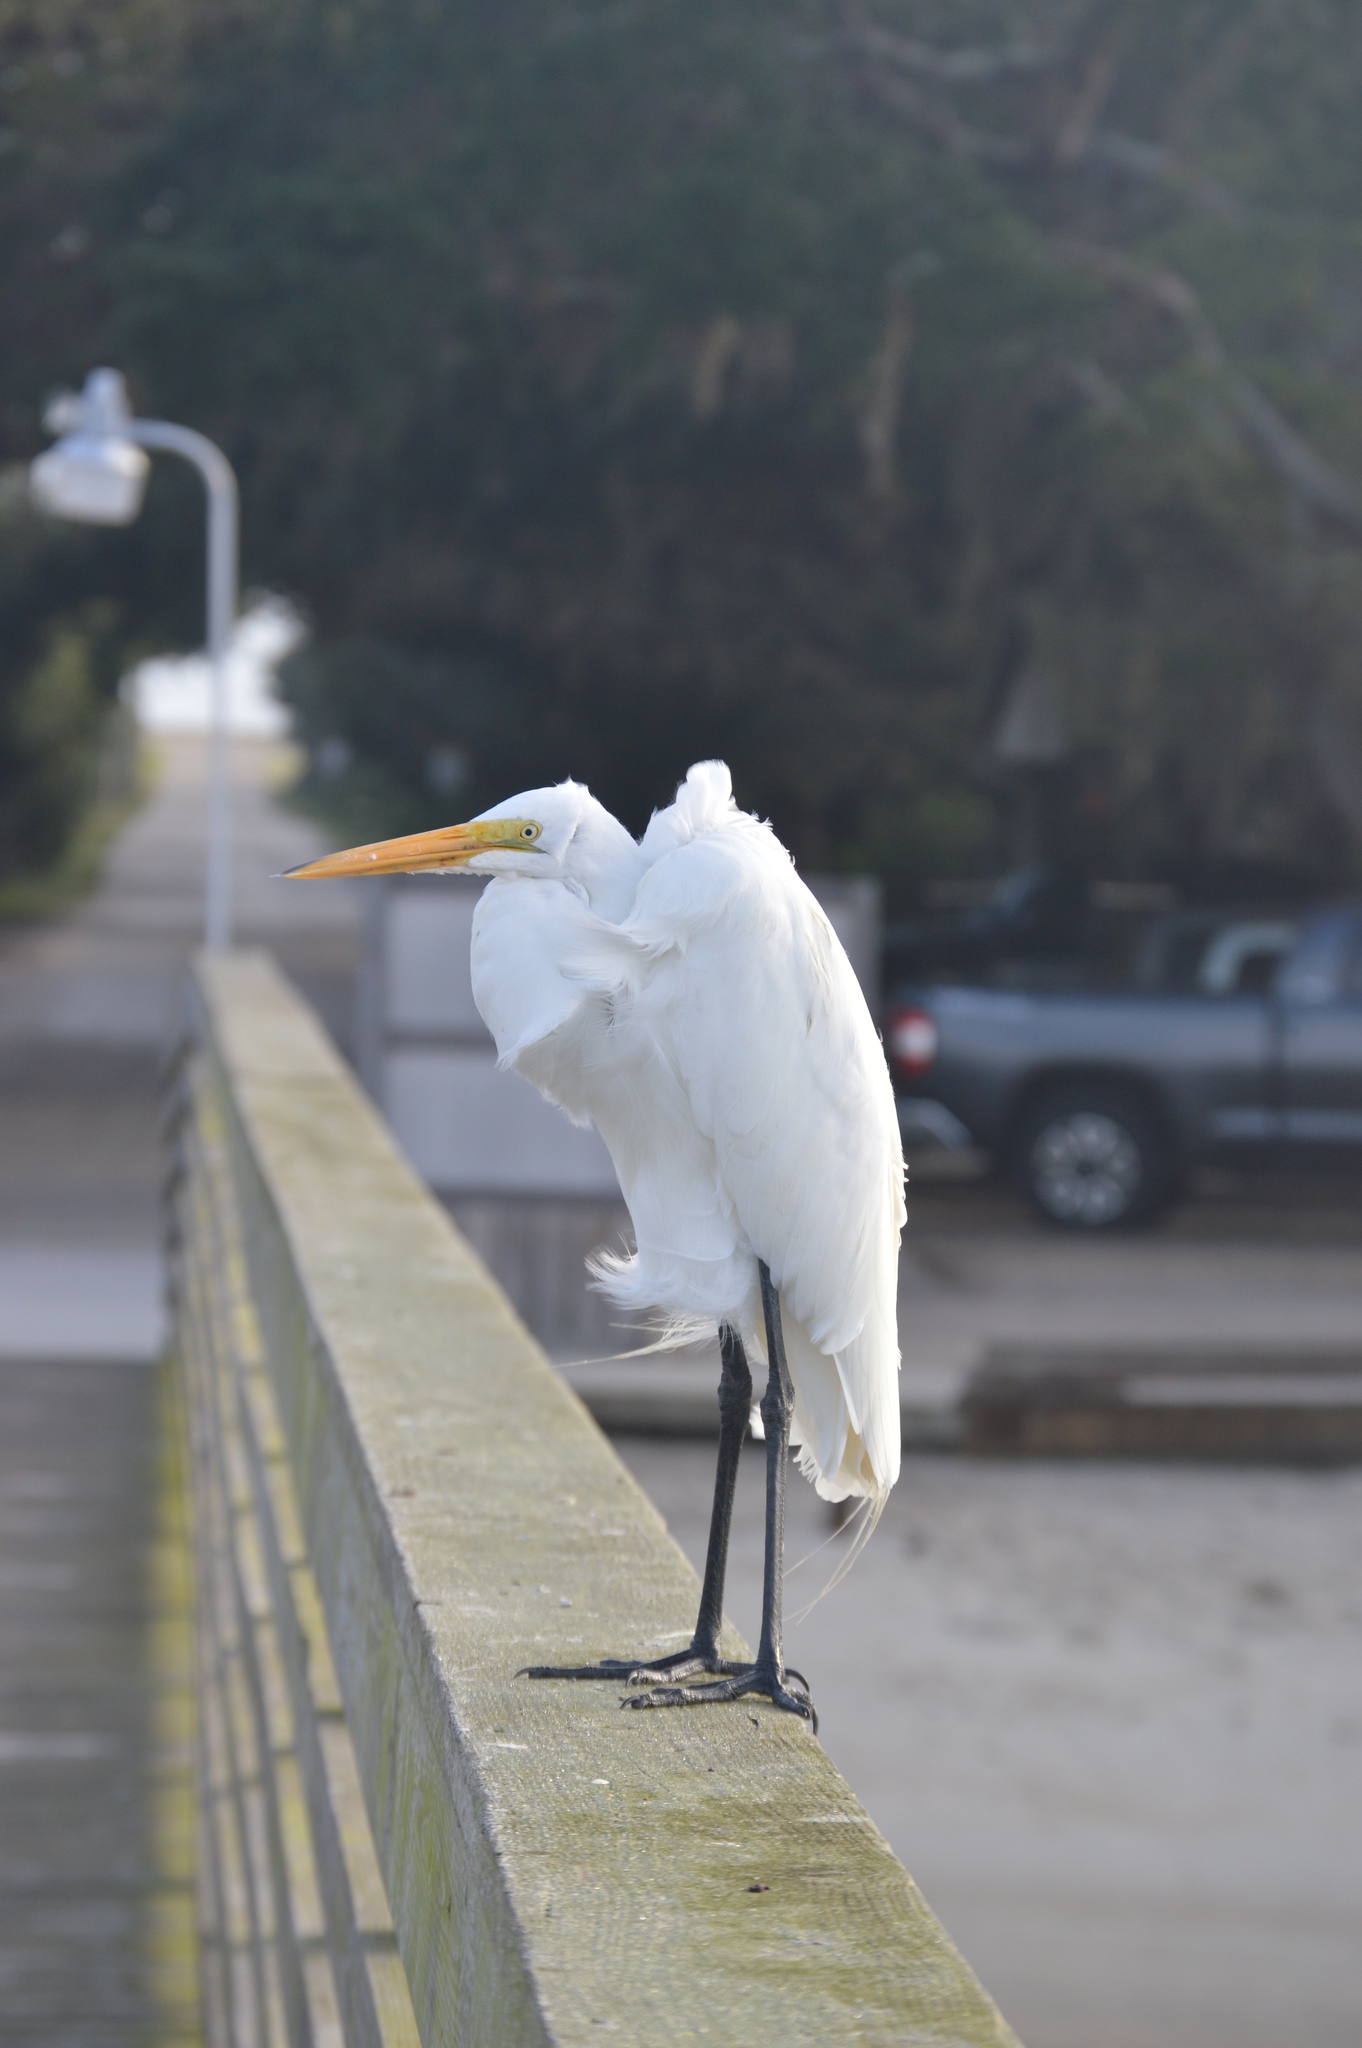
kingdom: Animalia
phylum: Chordata
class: Aves
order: Pelecaniformes
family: Ardeidae
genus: Ardea
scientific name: Ardea alba
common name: Great egret
